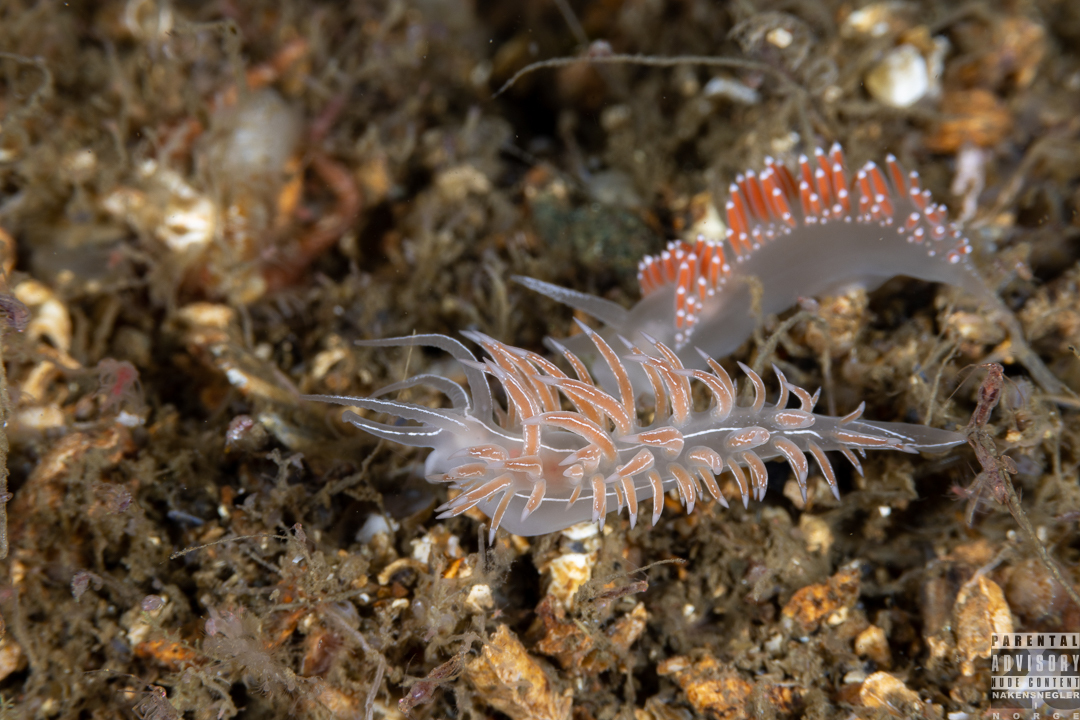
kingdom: Animalia
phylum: Mollusca
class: Gastropoda
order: Nudibranchia
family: Coryphellidae
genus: Coryphella
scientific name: Coryphella chriskaugei
